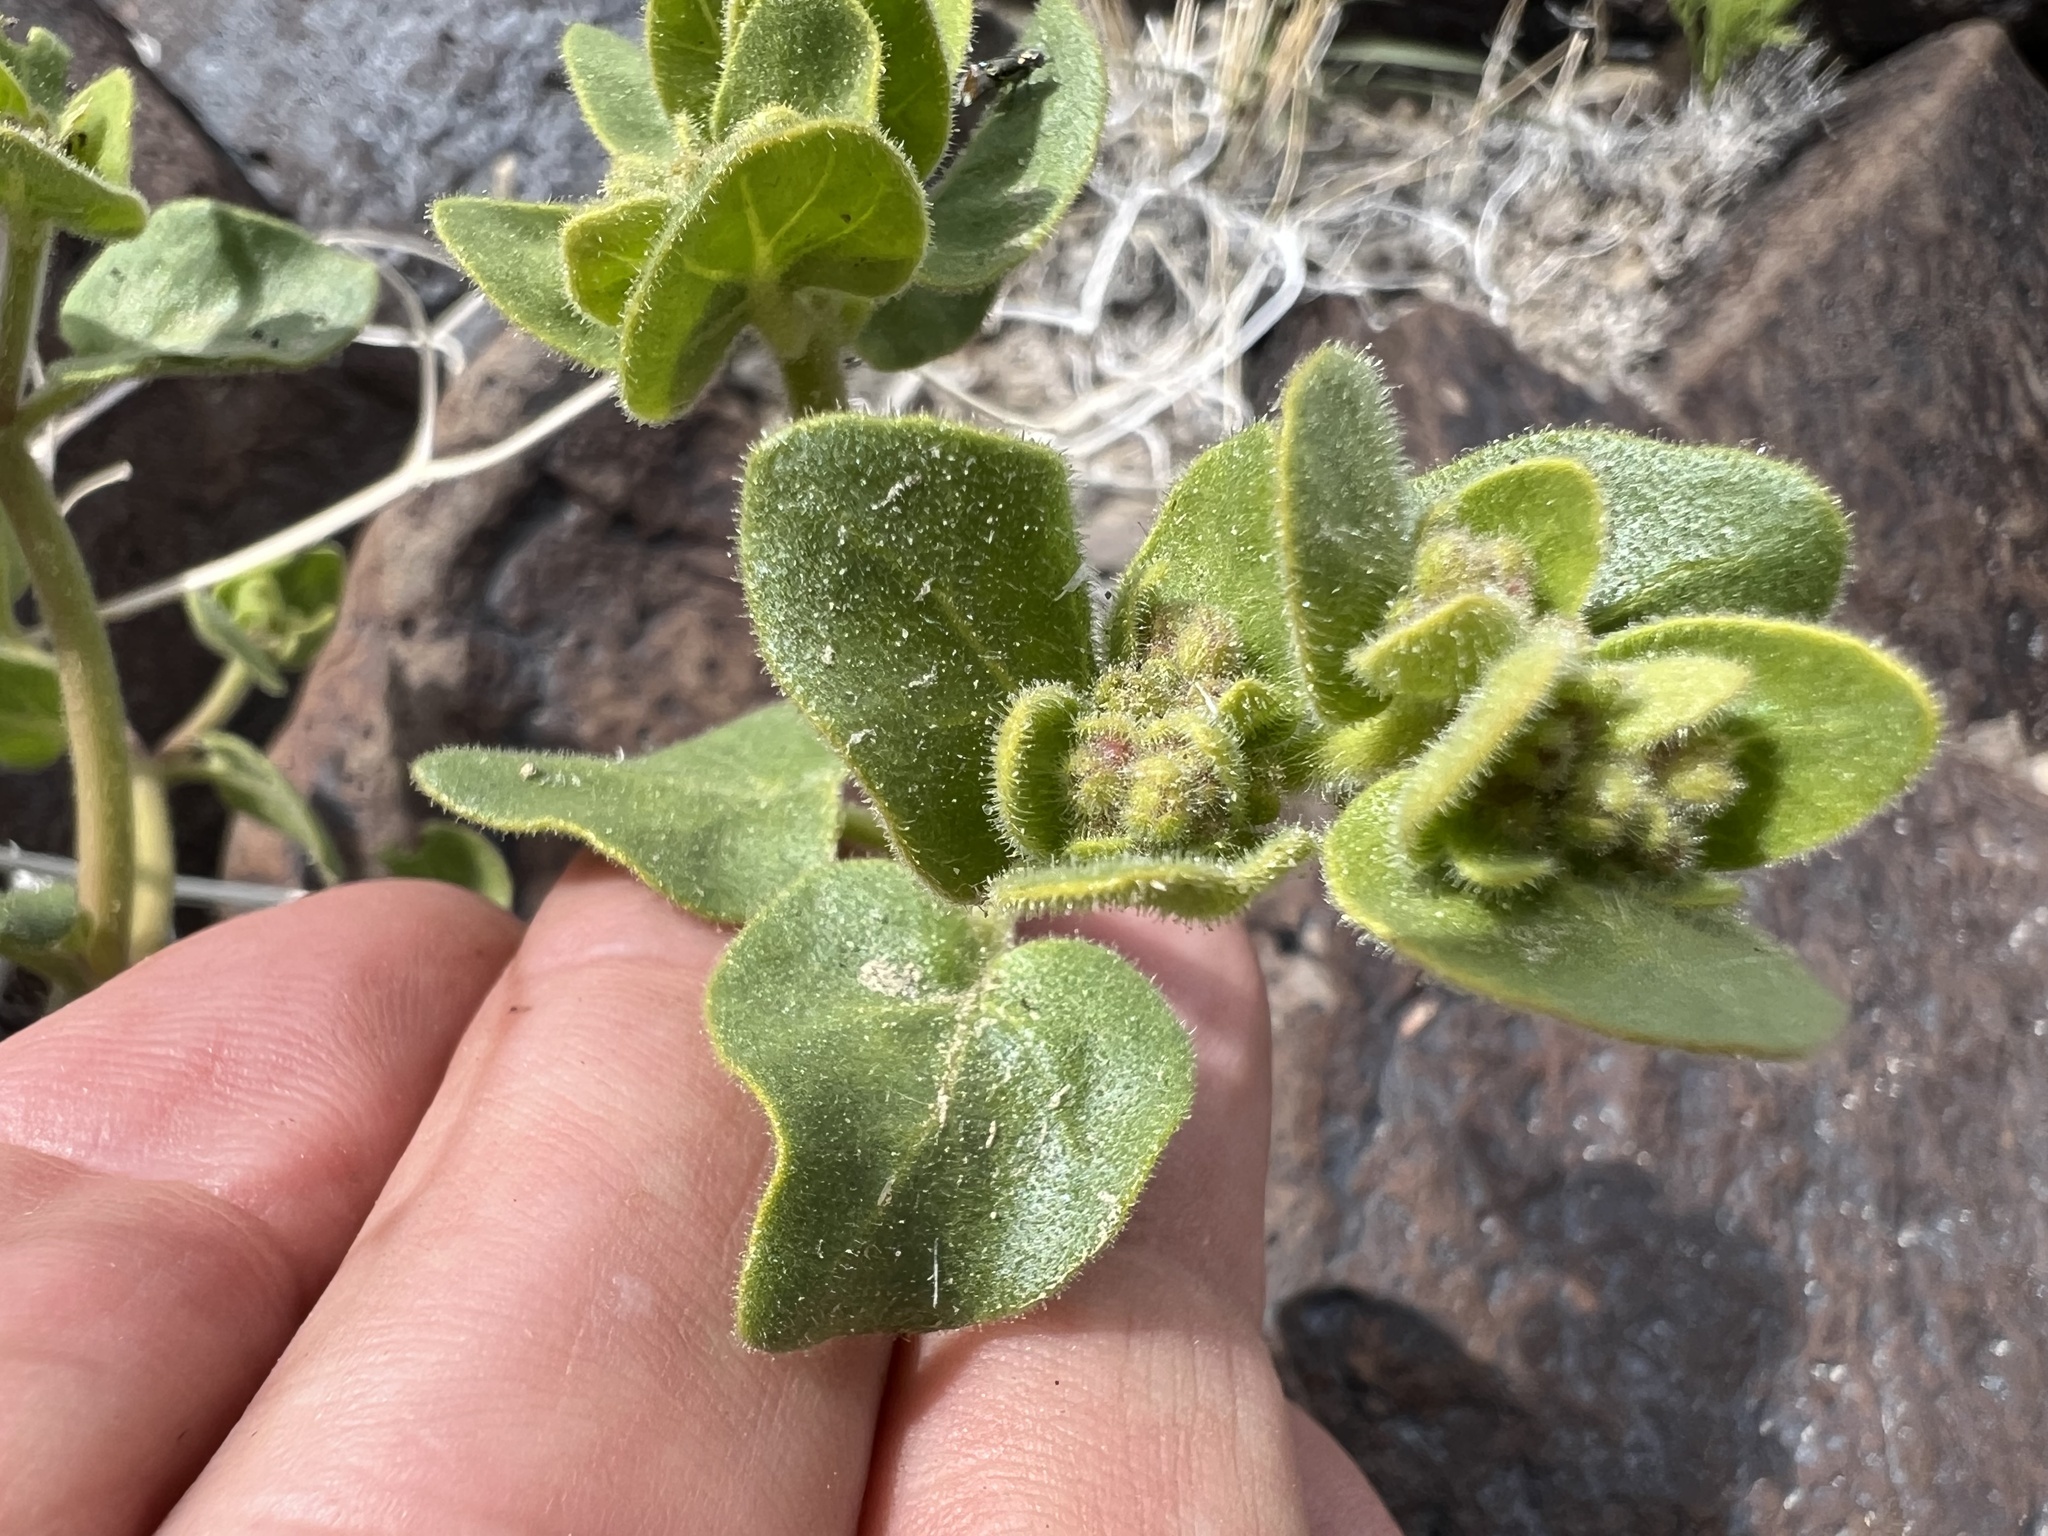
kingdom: Plantae
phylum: Tracheophyta
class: Magnoliopsida
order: Caryophyllales
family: Nyctaginaceae
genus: Mirabilis
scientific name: Mirabilis laevis
